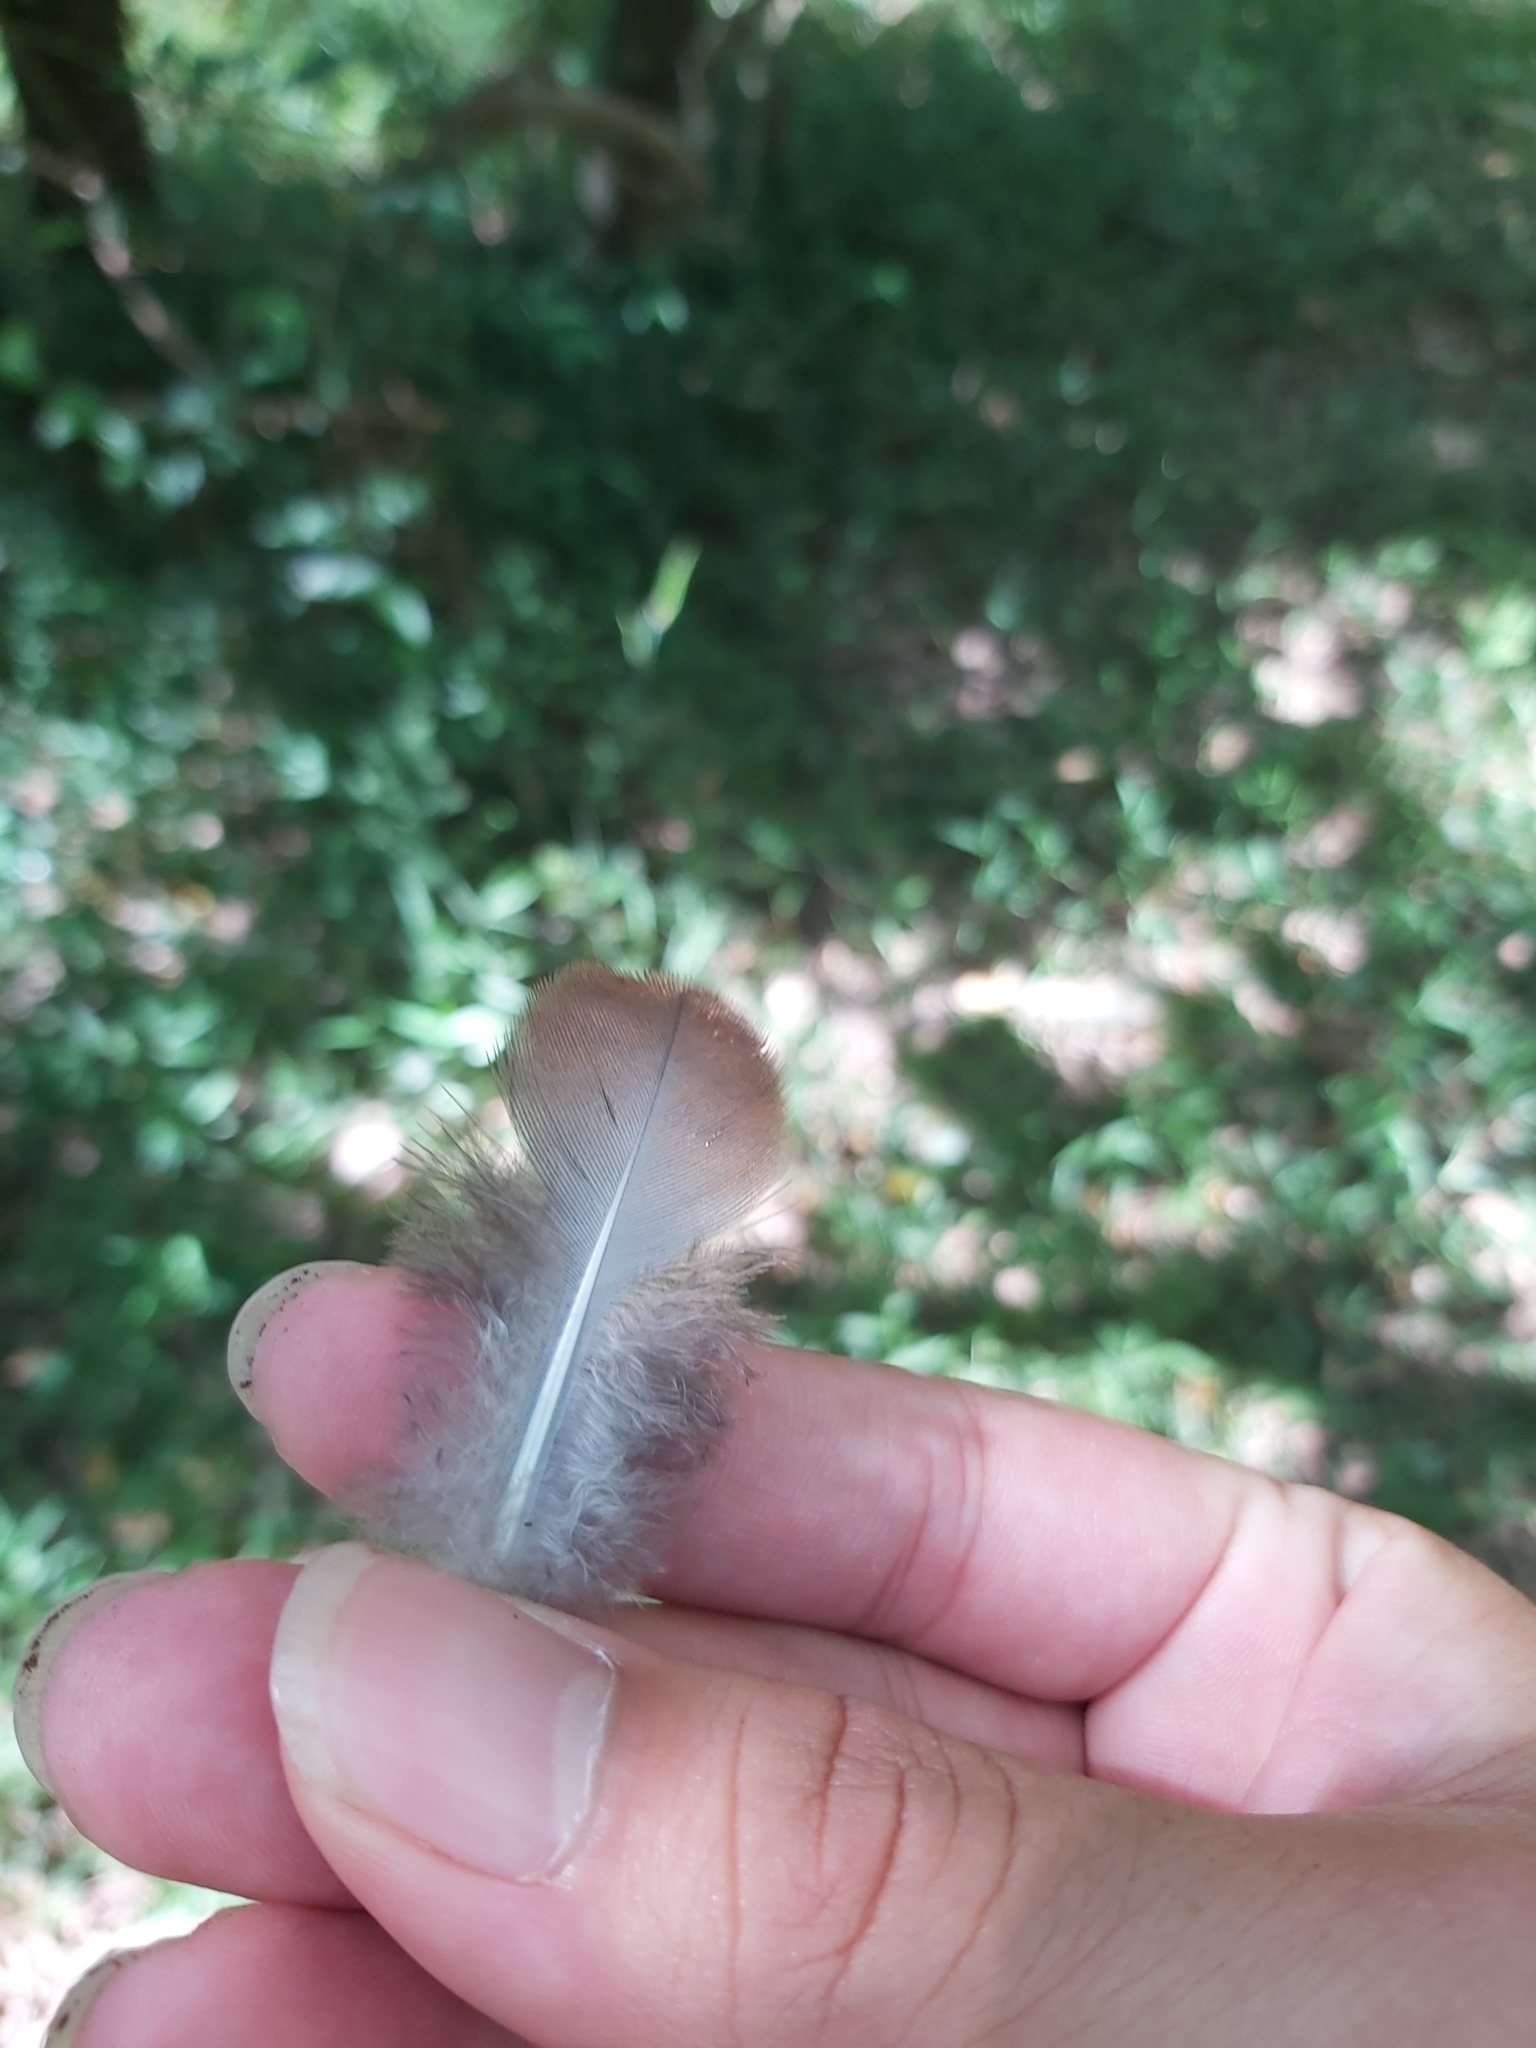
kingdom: Animalia
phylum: Chordata
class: Aves
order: Columbiformes
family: Columbidae
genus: Macropygia
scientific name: Macropygia phasianella
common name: Brown cuckoo-dove
